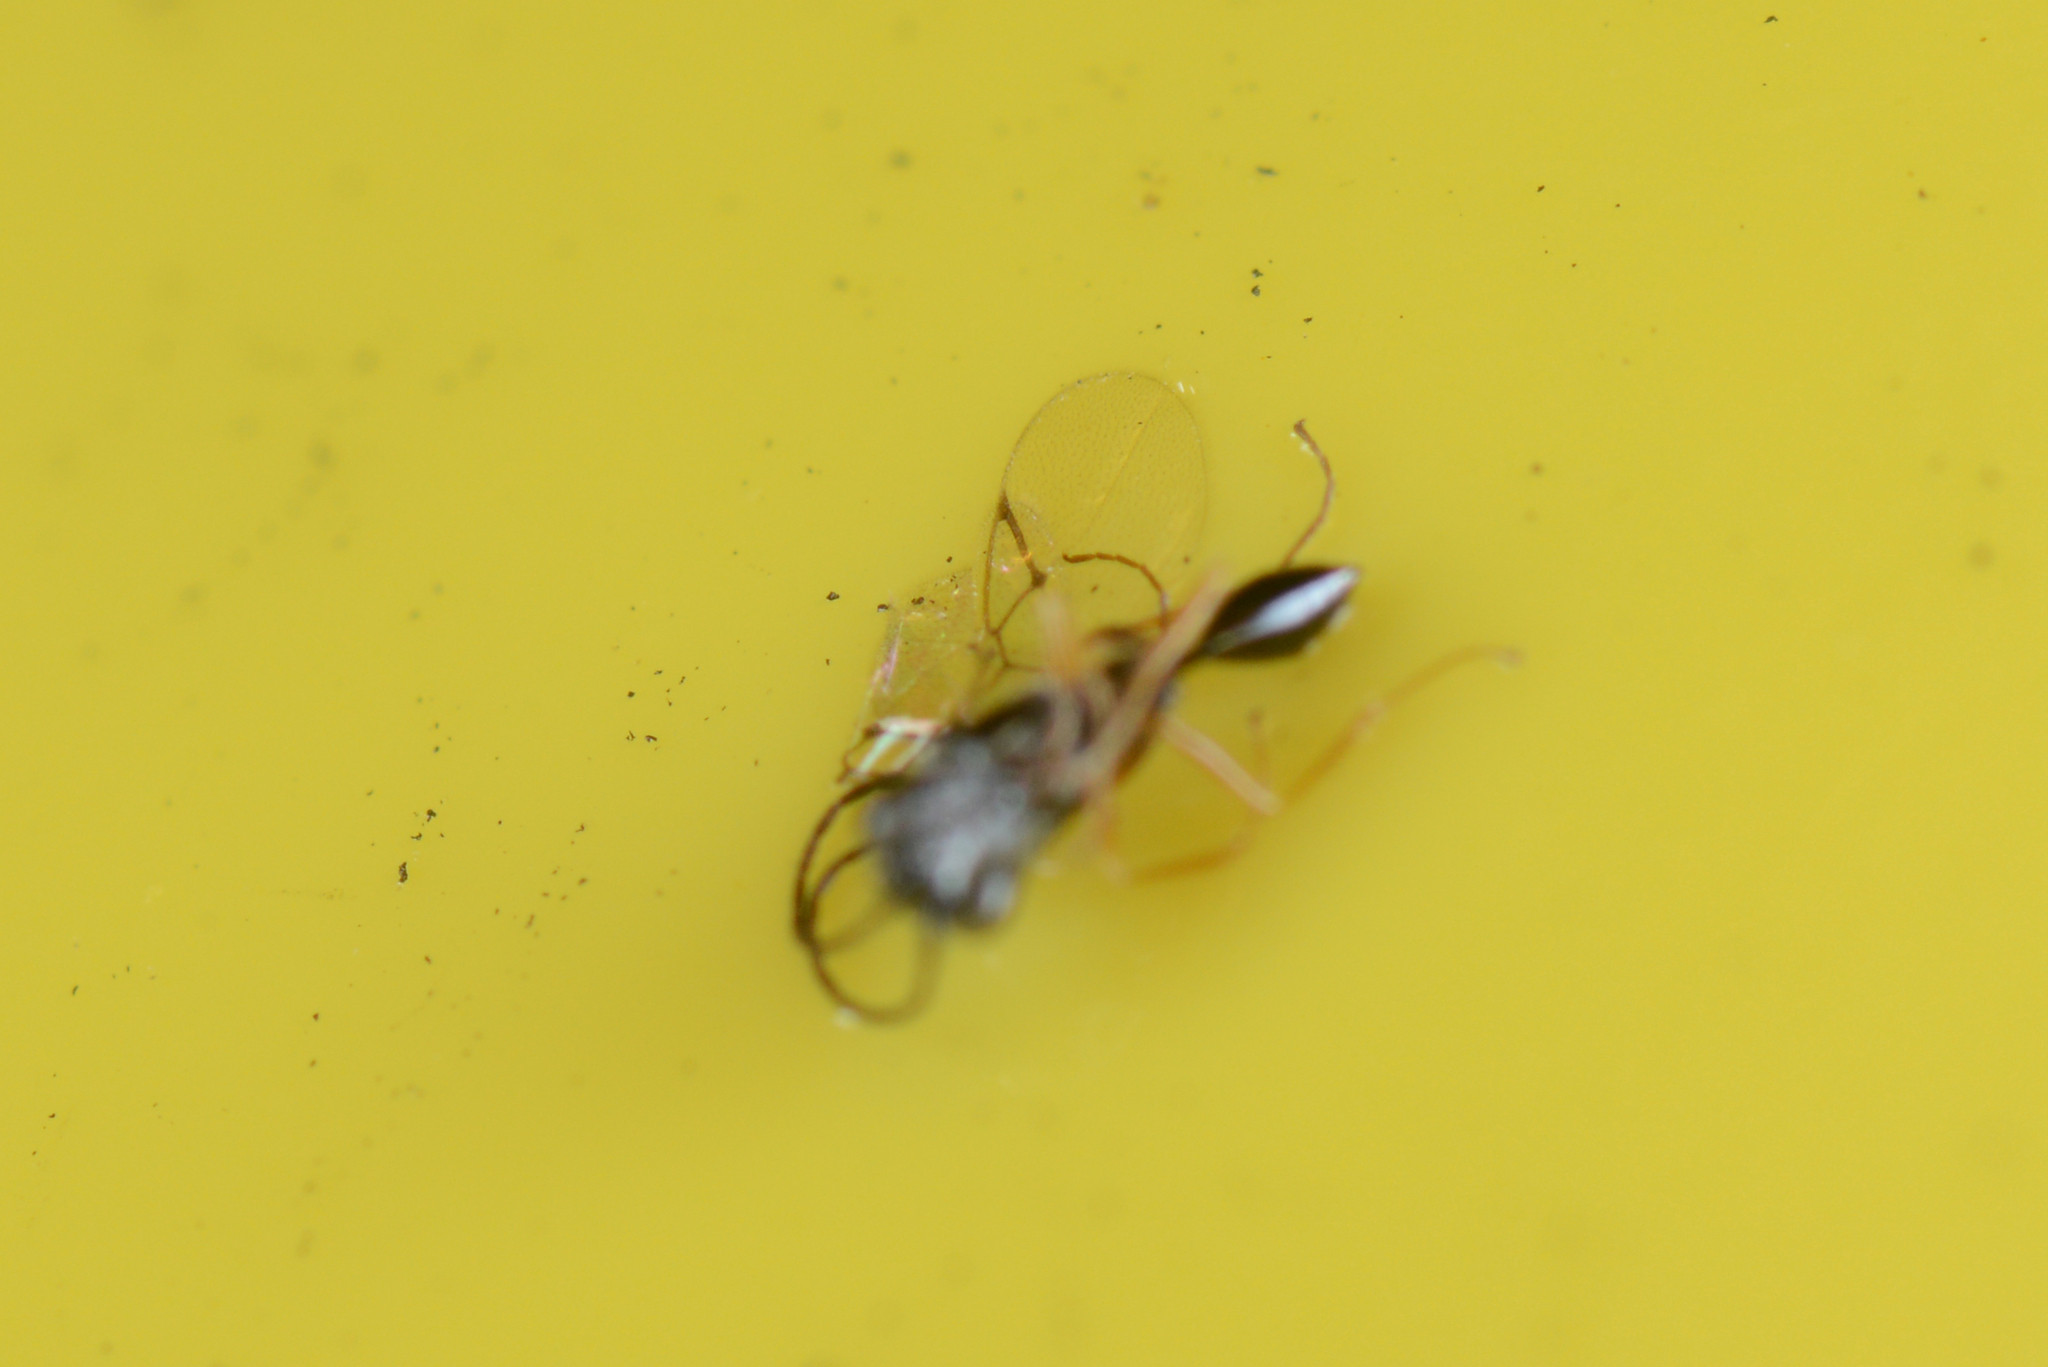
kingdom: Animalia
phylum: Arthropoda
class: Insecta
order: Hymenoptera
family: Figitidae
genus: Anacharis
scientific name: Anacharis zealandica
